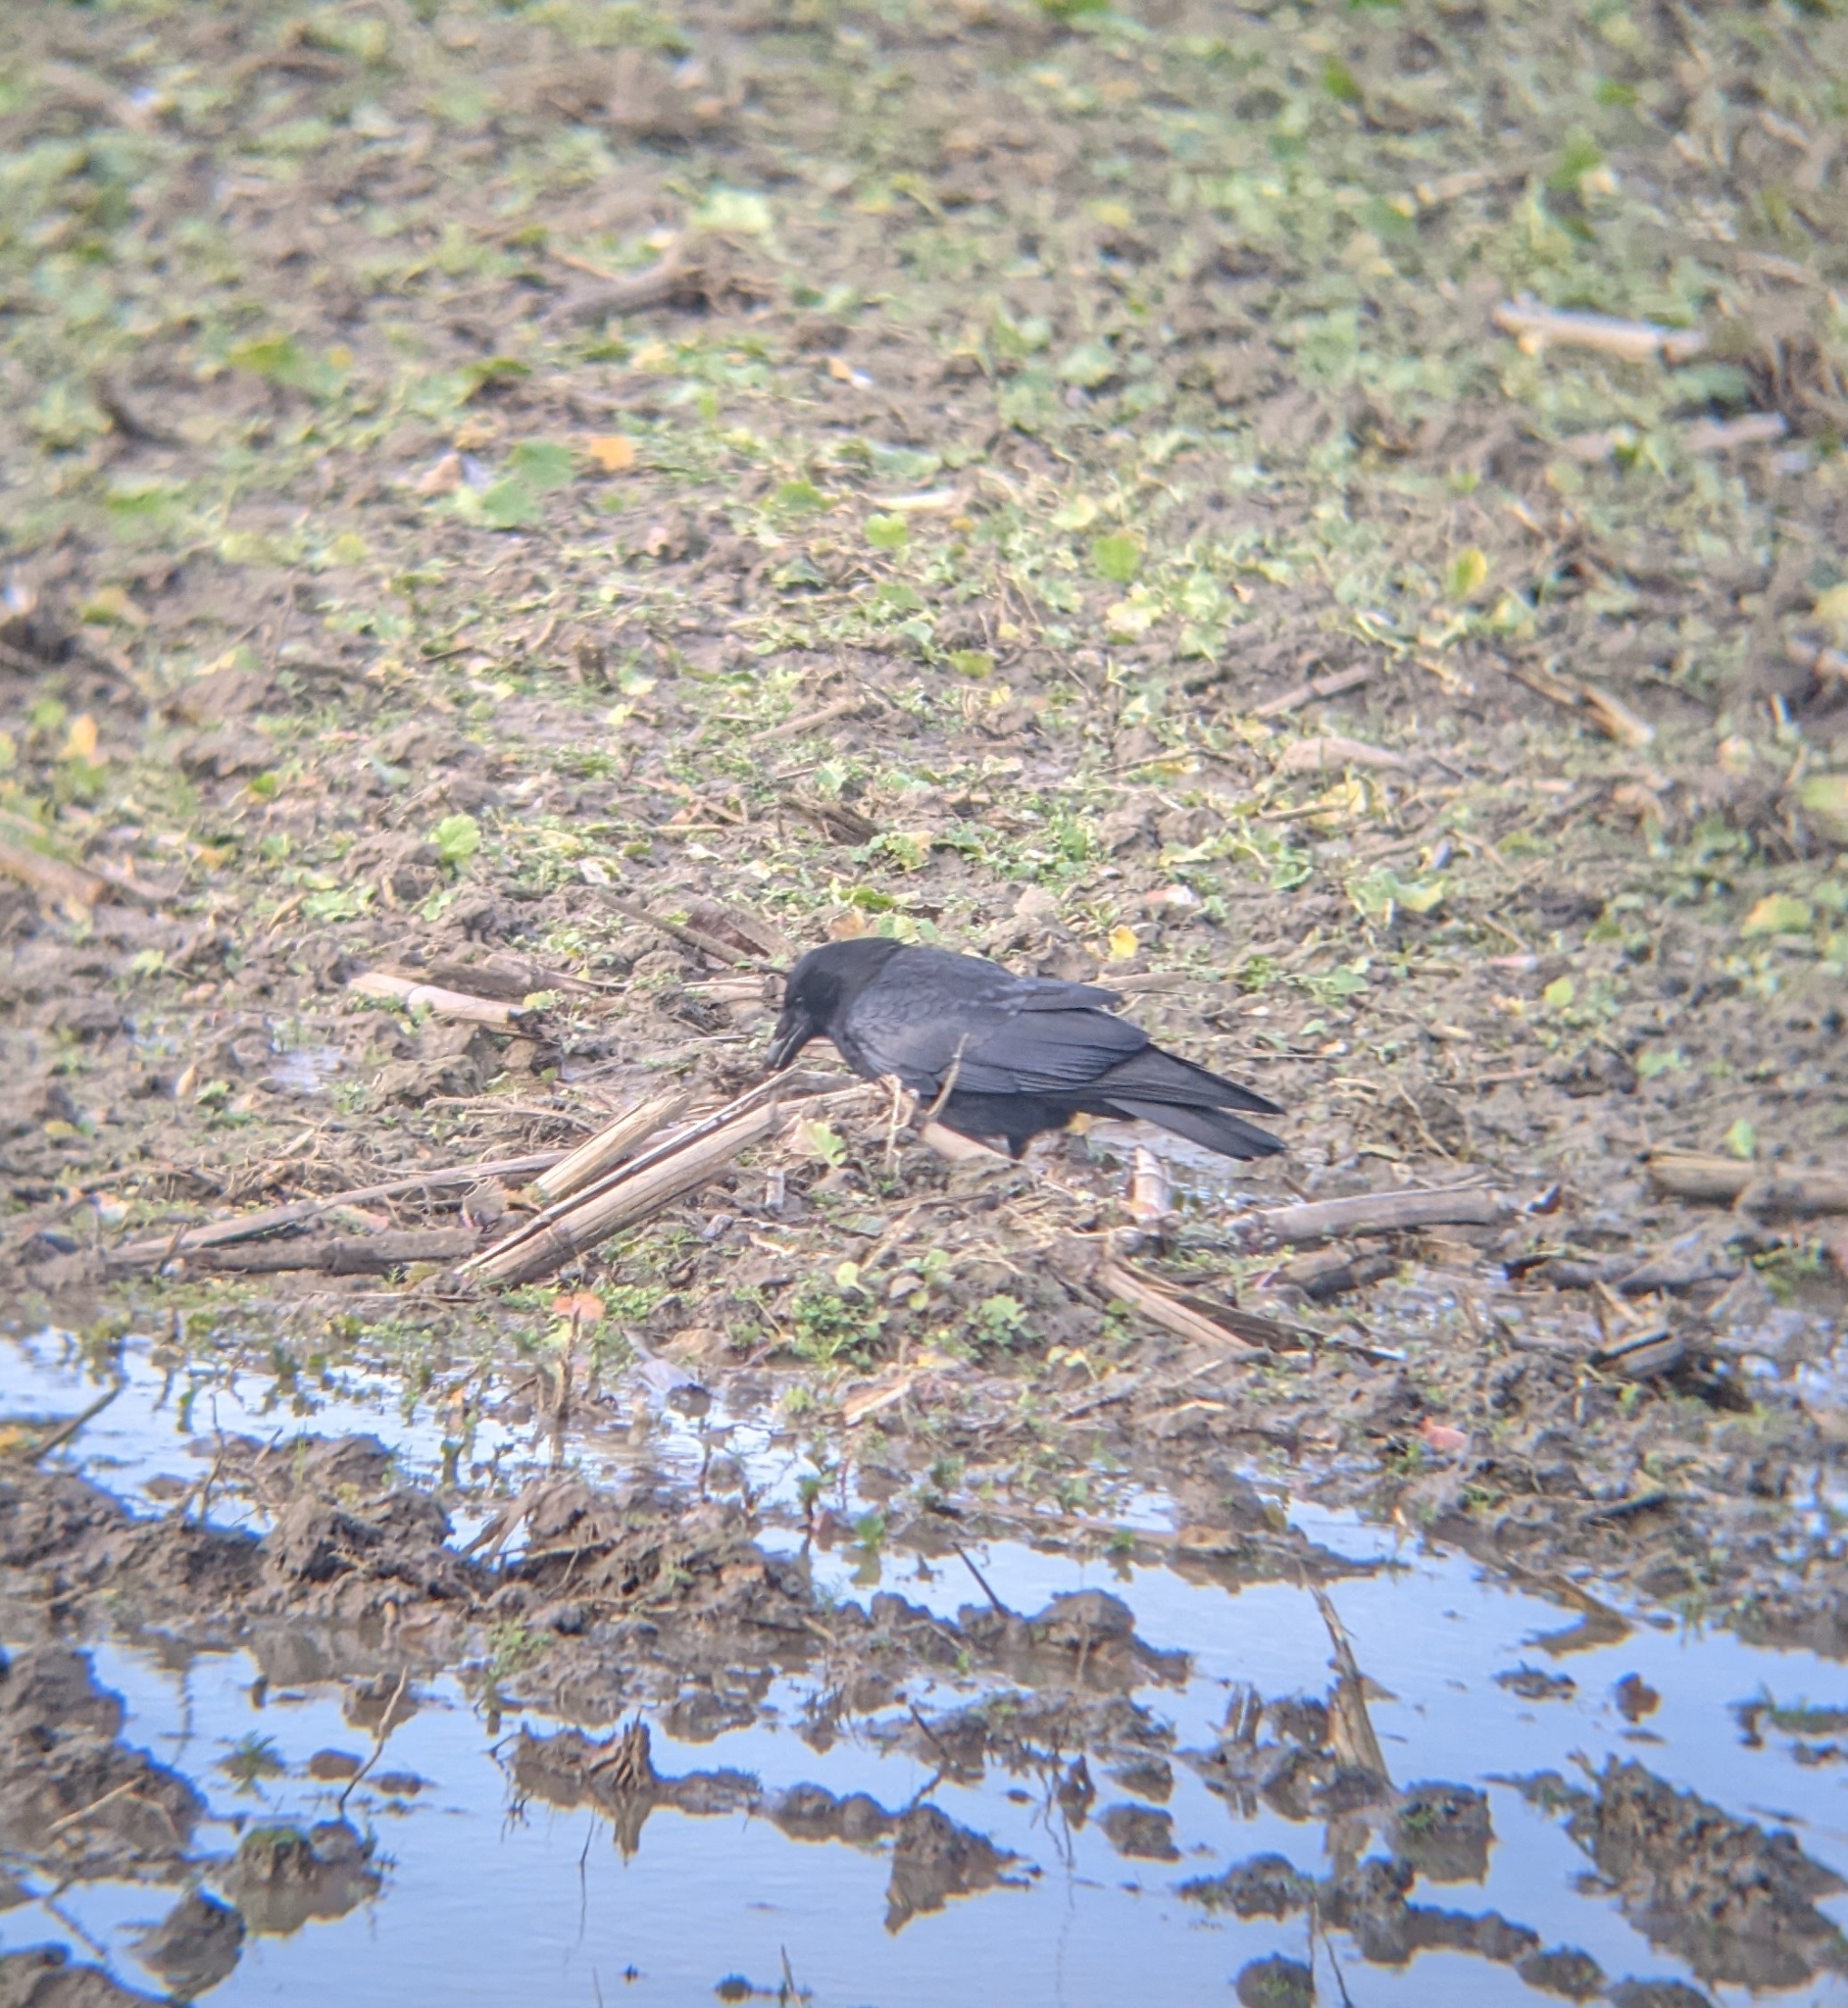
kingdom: Animalia
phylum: Chordata
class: Aves
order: Passeriformes
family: Corvidae
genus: Corvus
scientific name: Corvus corone
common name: Carrion crow
